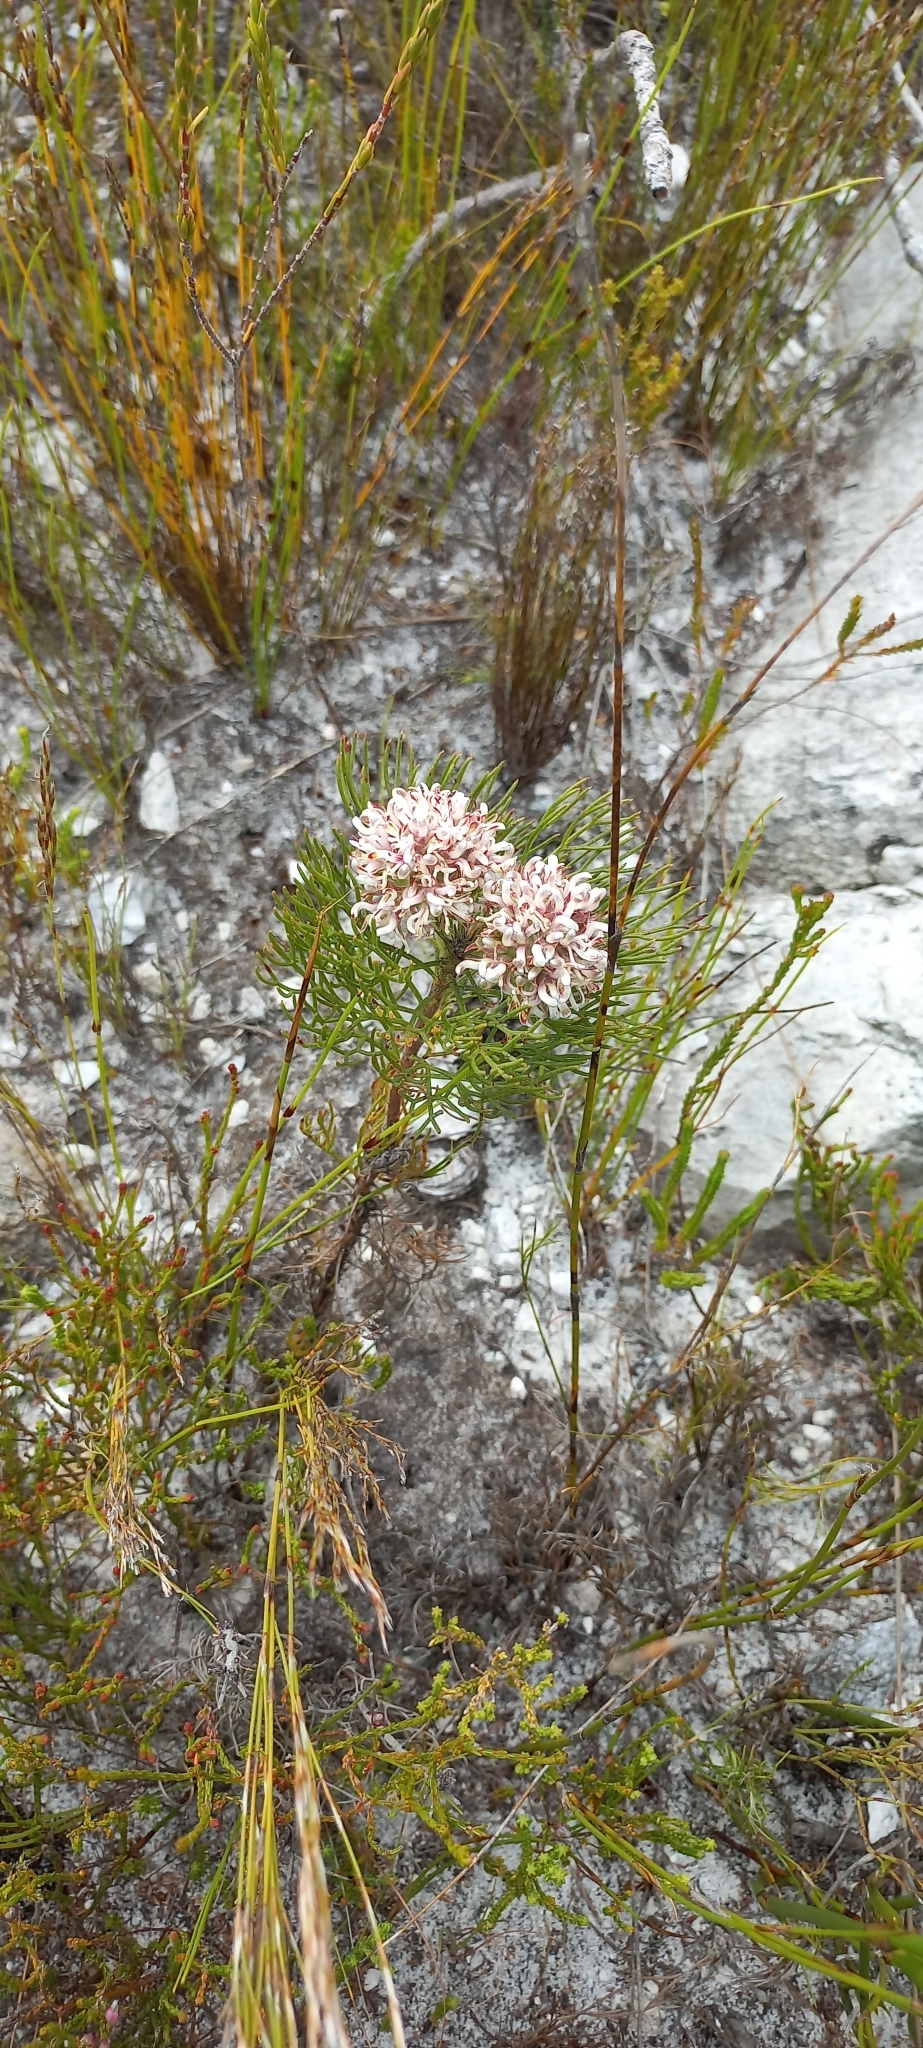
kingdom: Plantae
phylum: Tracheophyta
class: Magnoliopsida
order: Proteales
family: Proteaceae
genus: Serruria
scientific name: Serruria ascendens
